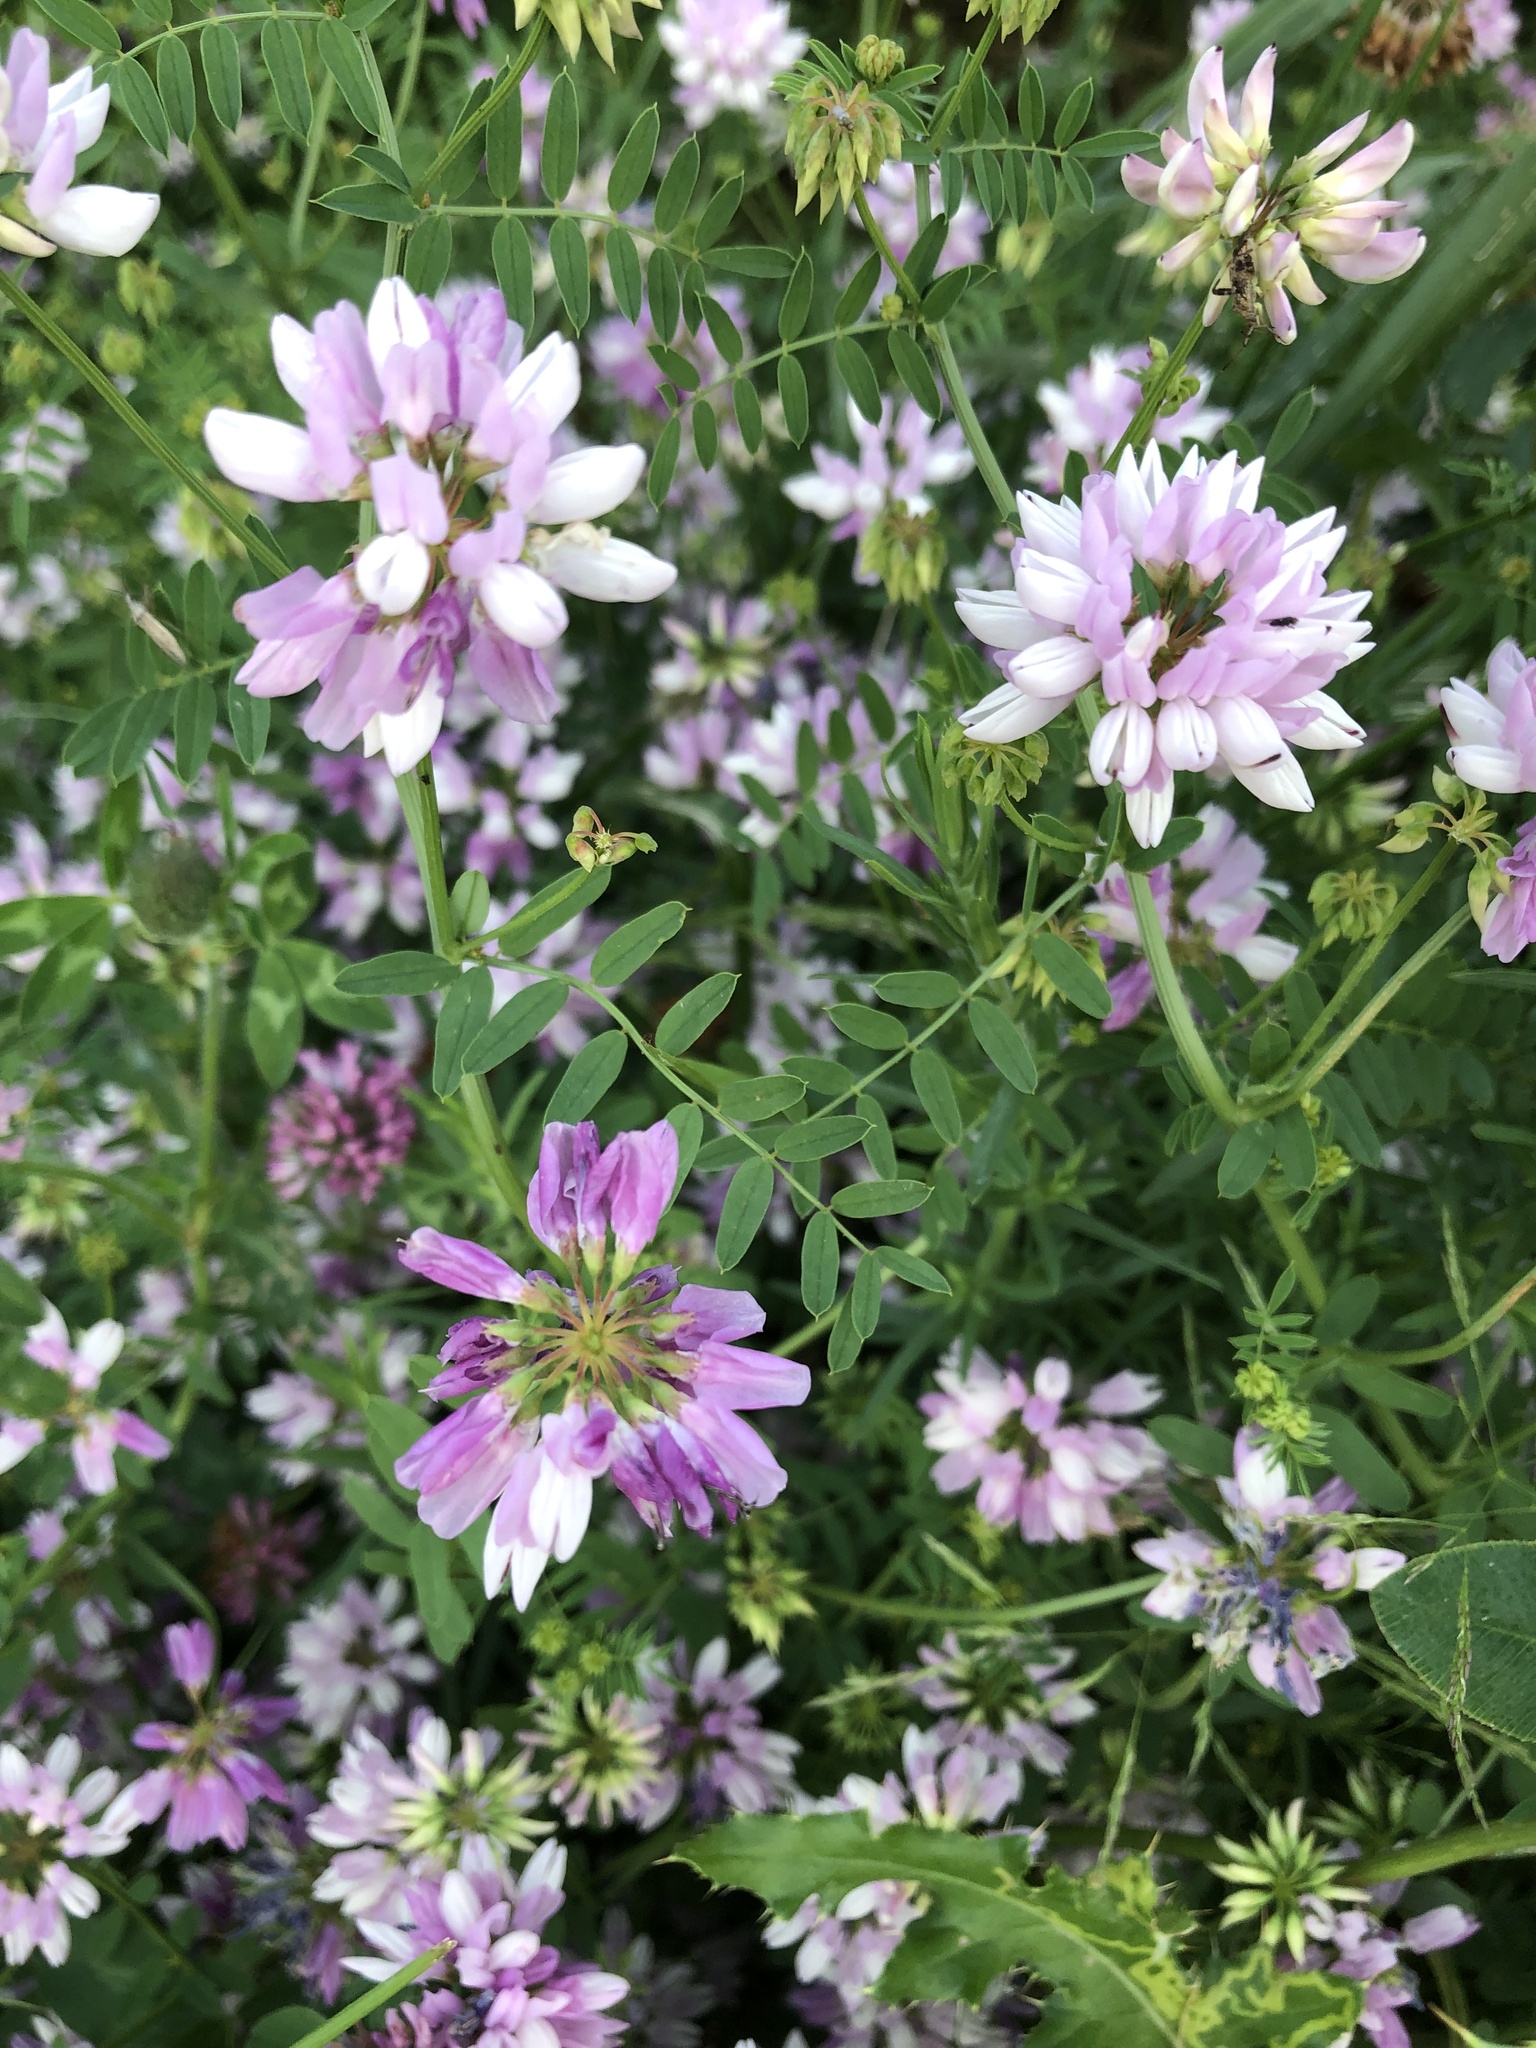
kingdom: Plantae
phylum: Tracheophyta
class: Magnoliopsida
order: Fabales
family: Fabaceae
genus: Coronilla
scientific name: Coronilla varia
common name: Crownvetch
